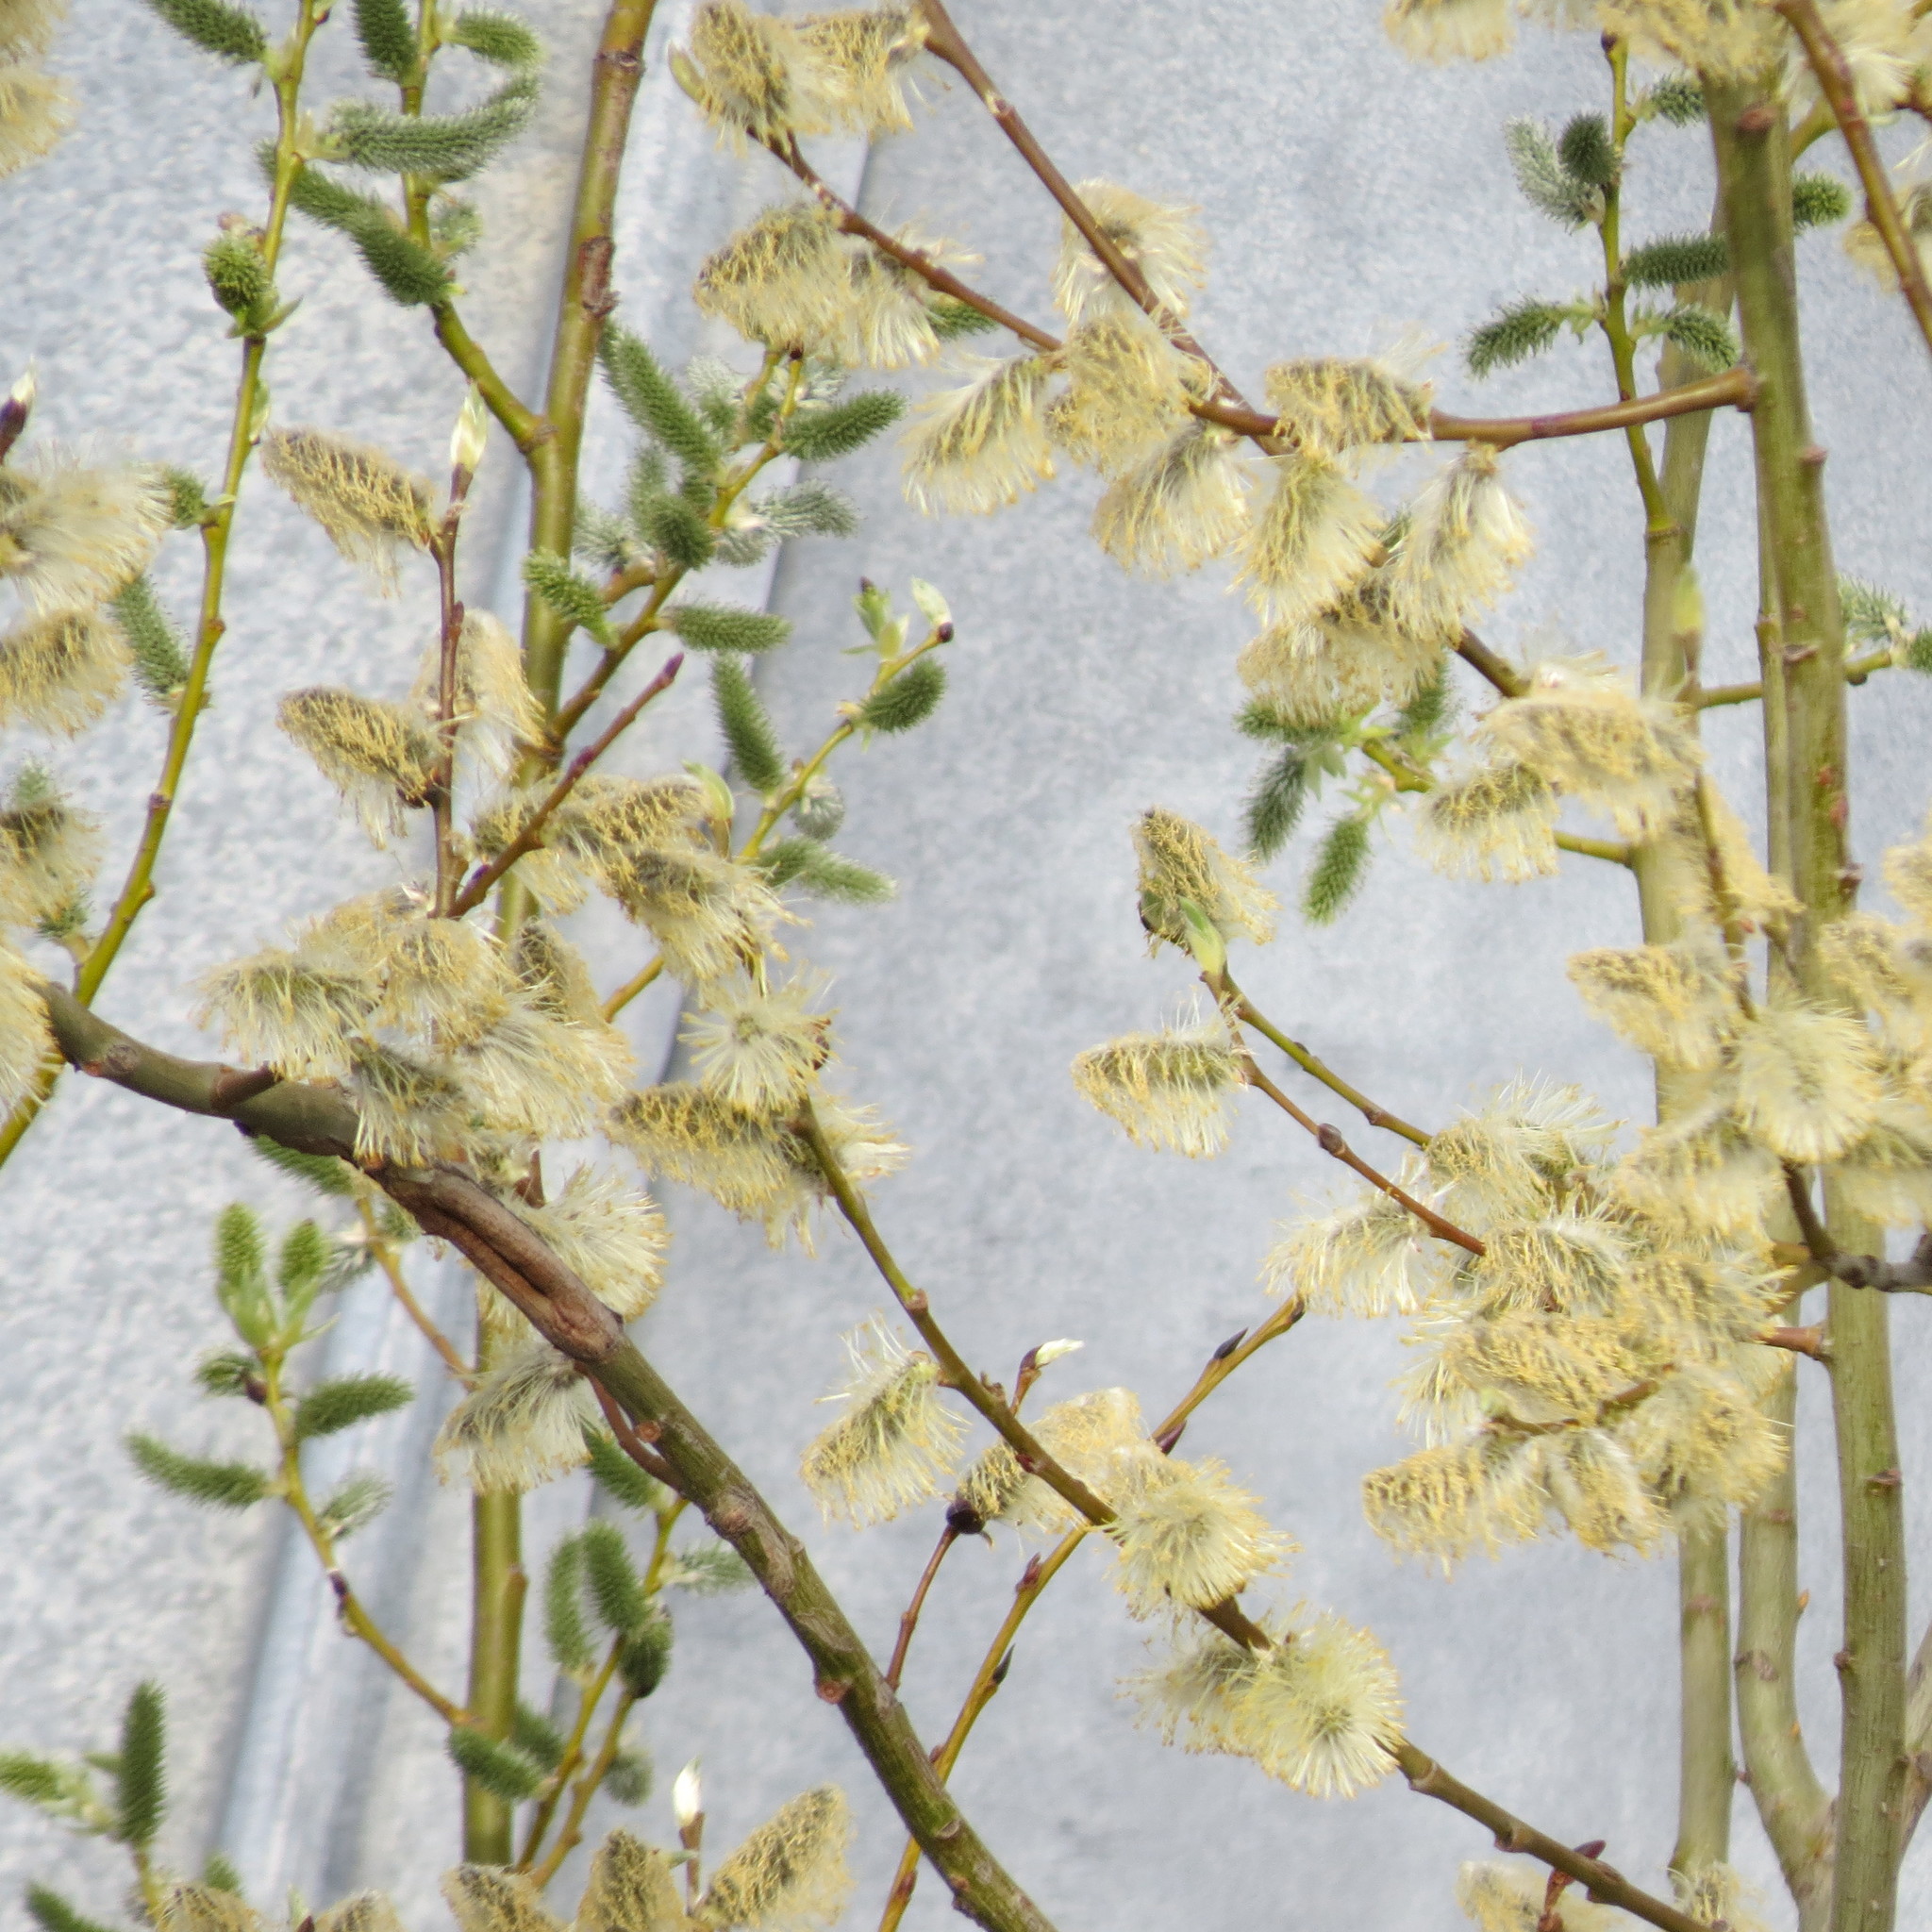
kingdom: Plantae
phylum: Tracheophyta
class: Magnoliopsida
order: Malpighiales
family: Salicaceae
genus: Salix
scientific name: Salix caprea
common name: Goat willow
